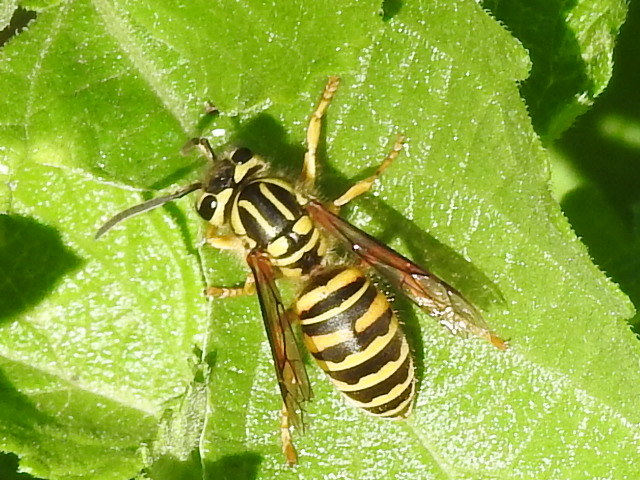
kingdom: Animalia
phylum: Arthropoda
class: Insecta
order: Hymenoptera
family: Vespidae
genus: Vespula
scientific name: Vespula squamosa
